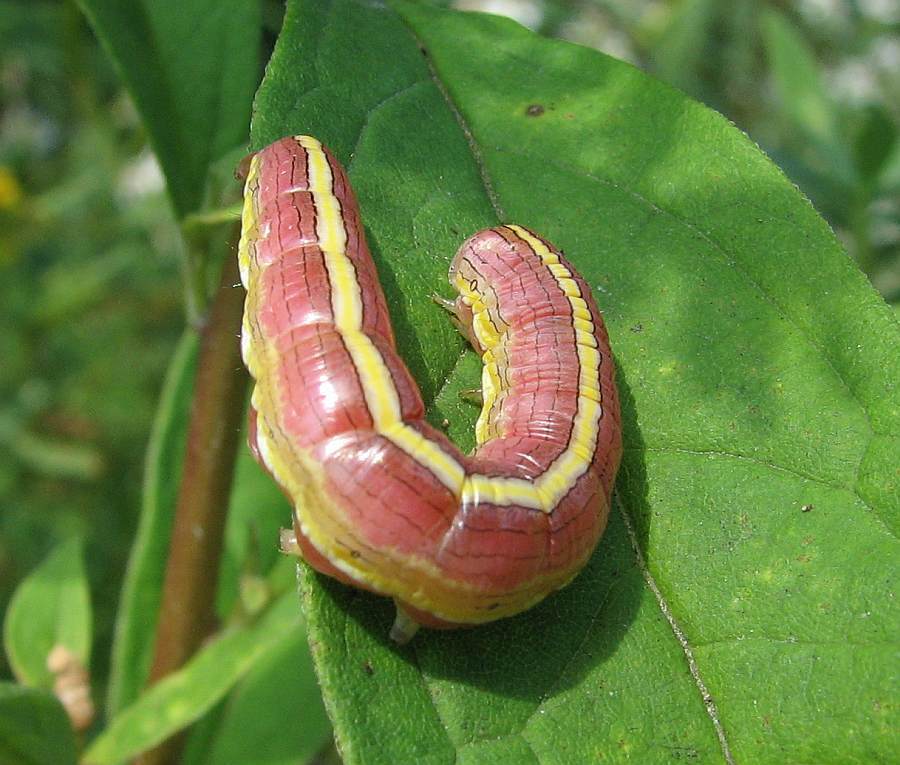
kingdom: Animalia
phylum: Arthropoda
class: Insecta
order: Lepidoptera
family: Noctuidae
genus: Cucullia
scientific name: Cucullia asteroides
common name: Asteroid moth
